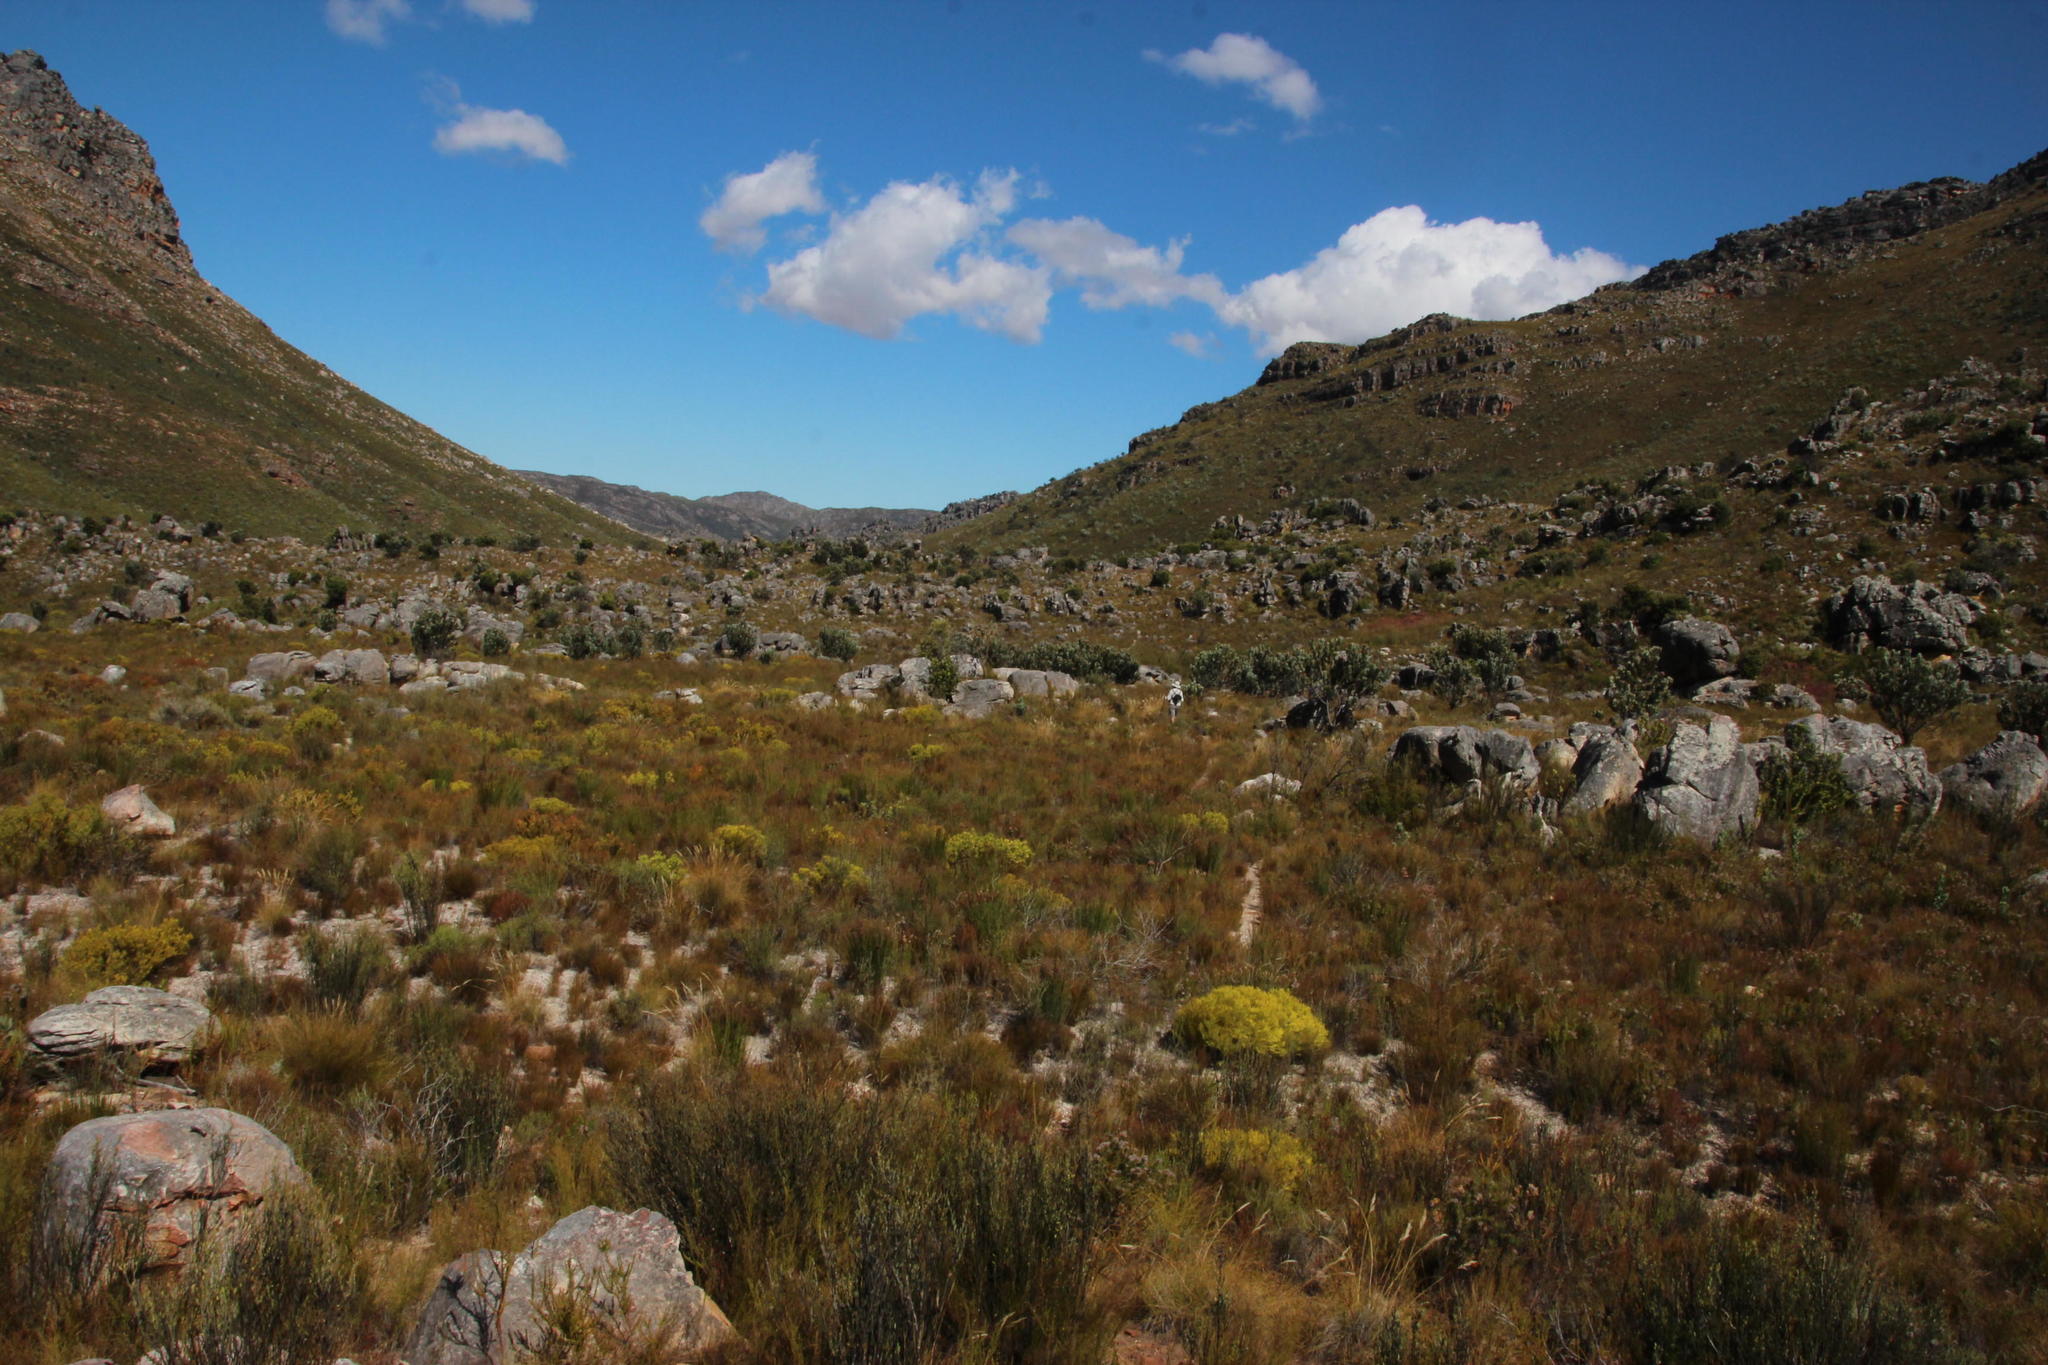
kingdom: Plantae
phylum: Tracheophyta
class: Magnoliopsida
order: Proteales
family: Proteaceae
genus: Leucadendron
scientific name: Leucadendron salignum
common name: Common sunshine conebush
